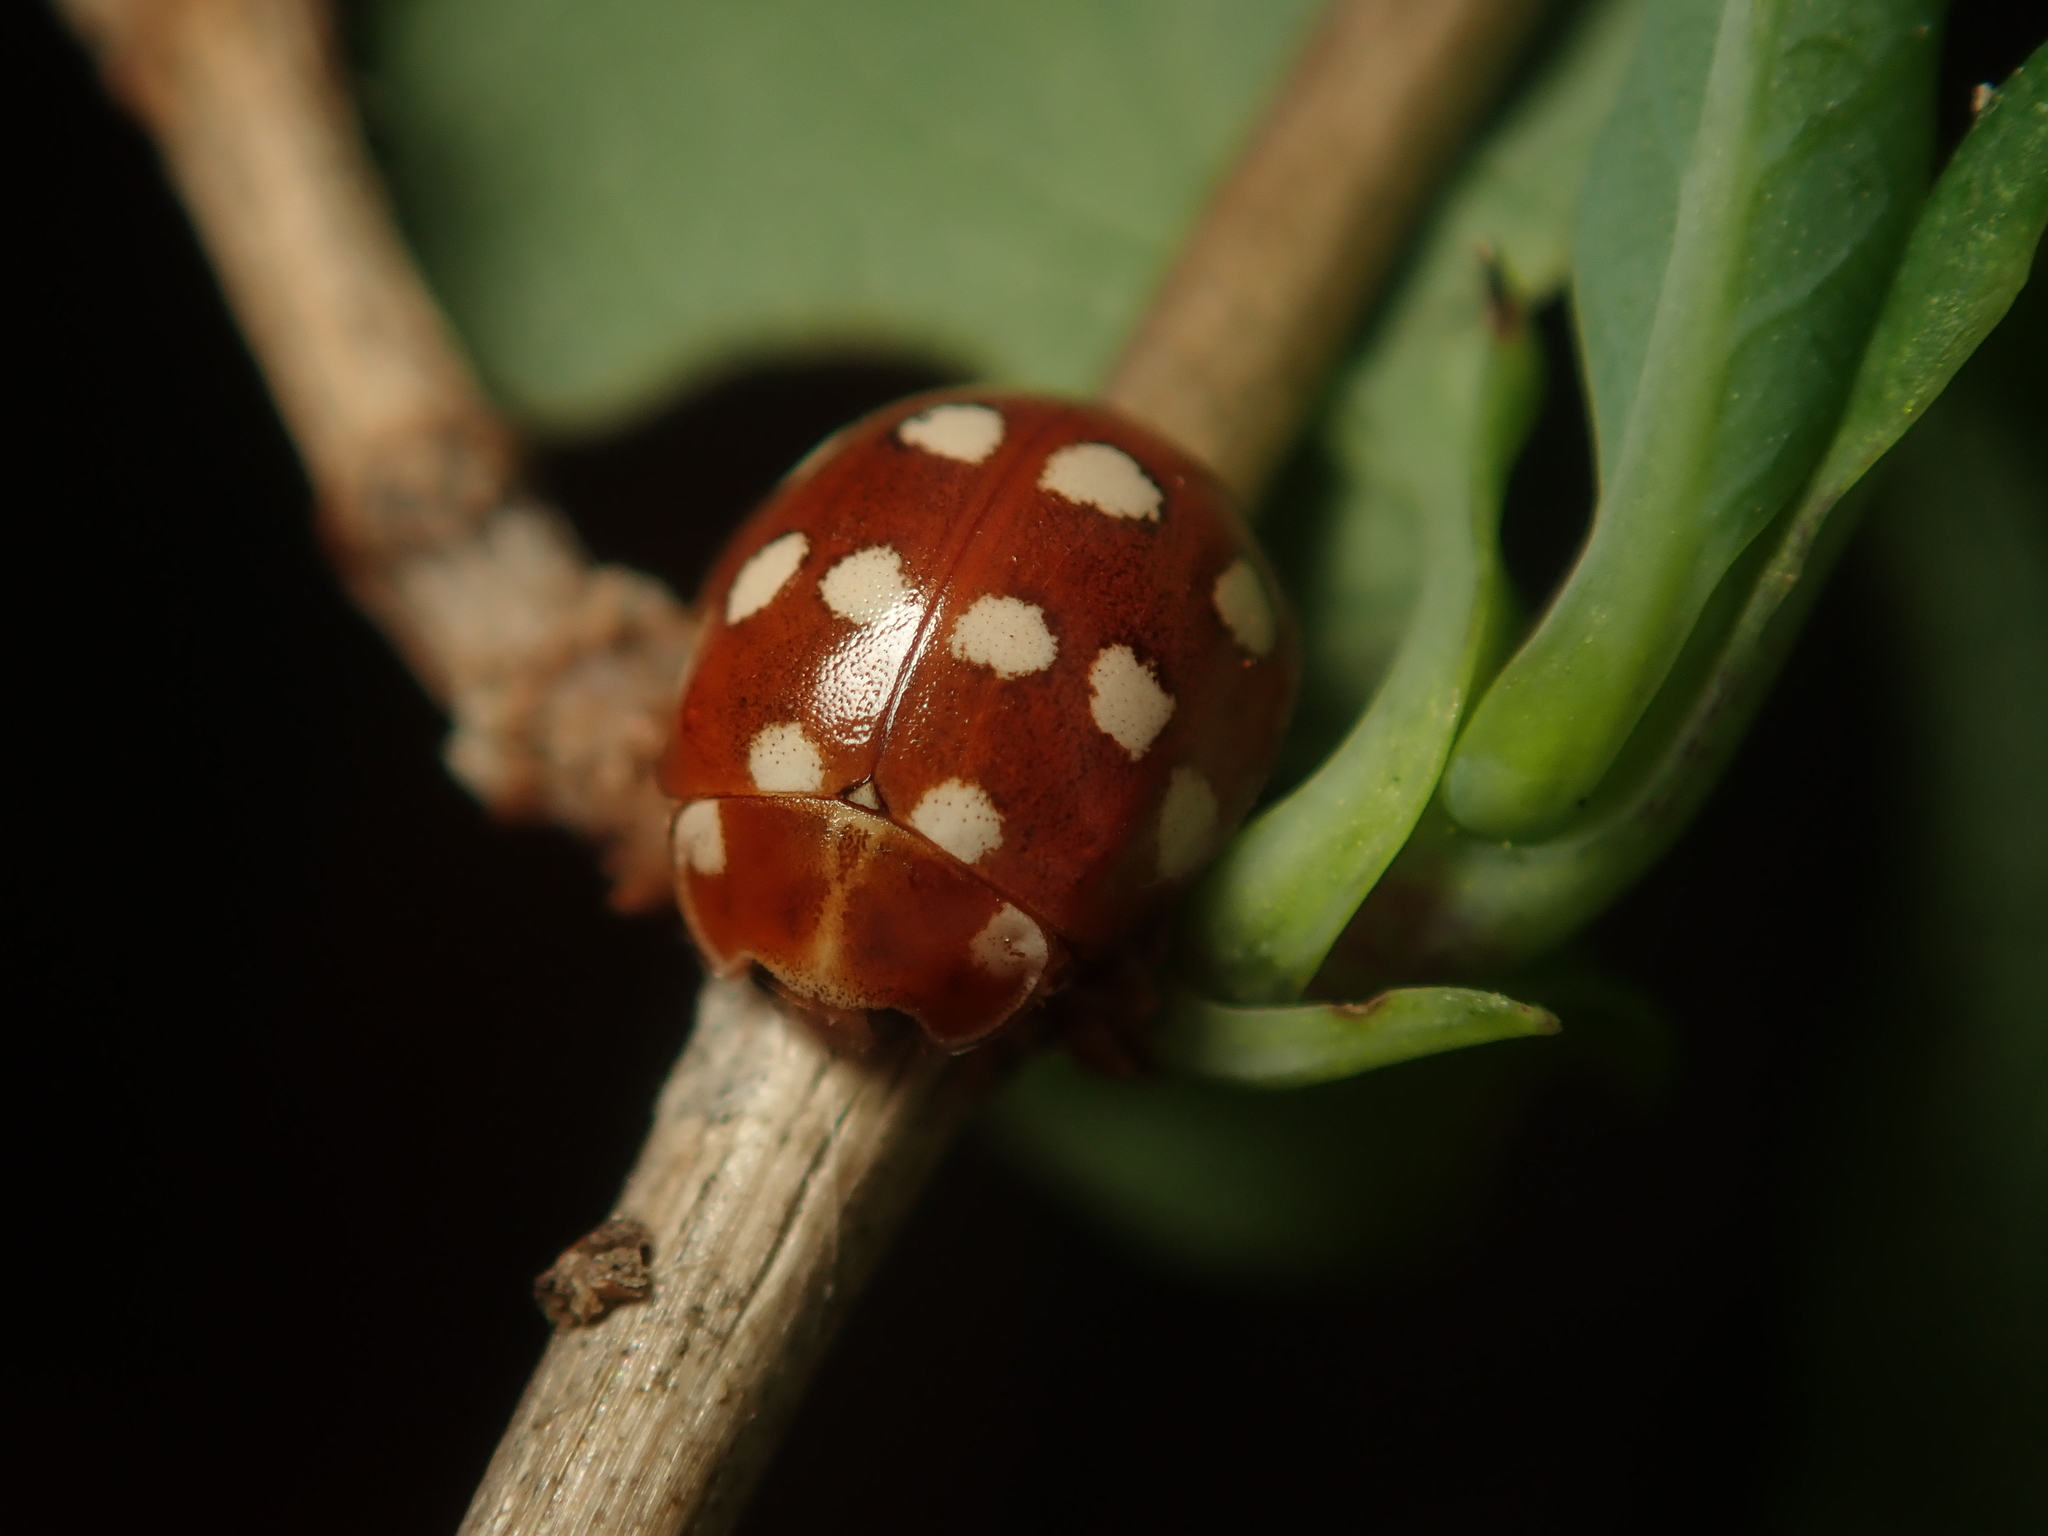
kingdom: Animalia
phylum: Arthropoda
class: Insecta
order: Coleoptera
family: Coccinellidae
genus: Calvia
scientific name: Calvia quatuordecimguttata
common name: Cream-spot ladybird
